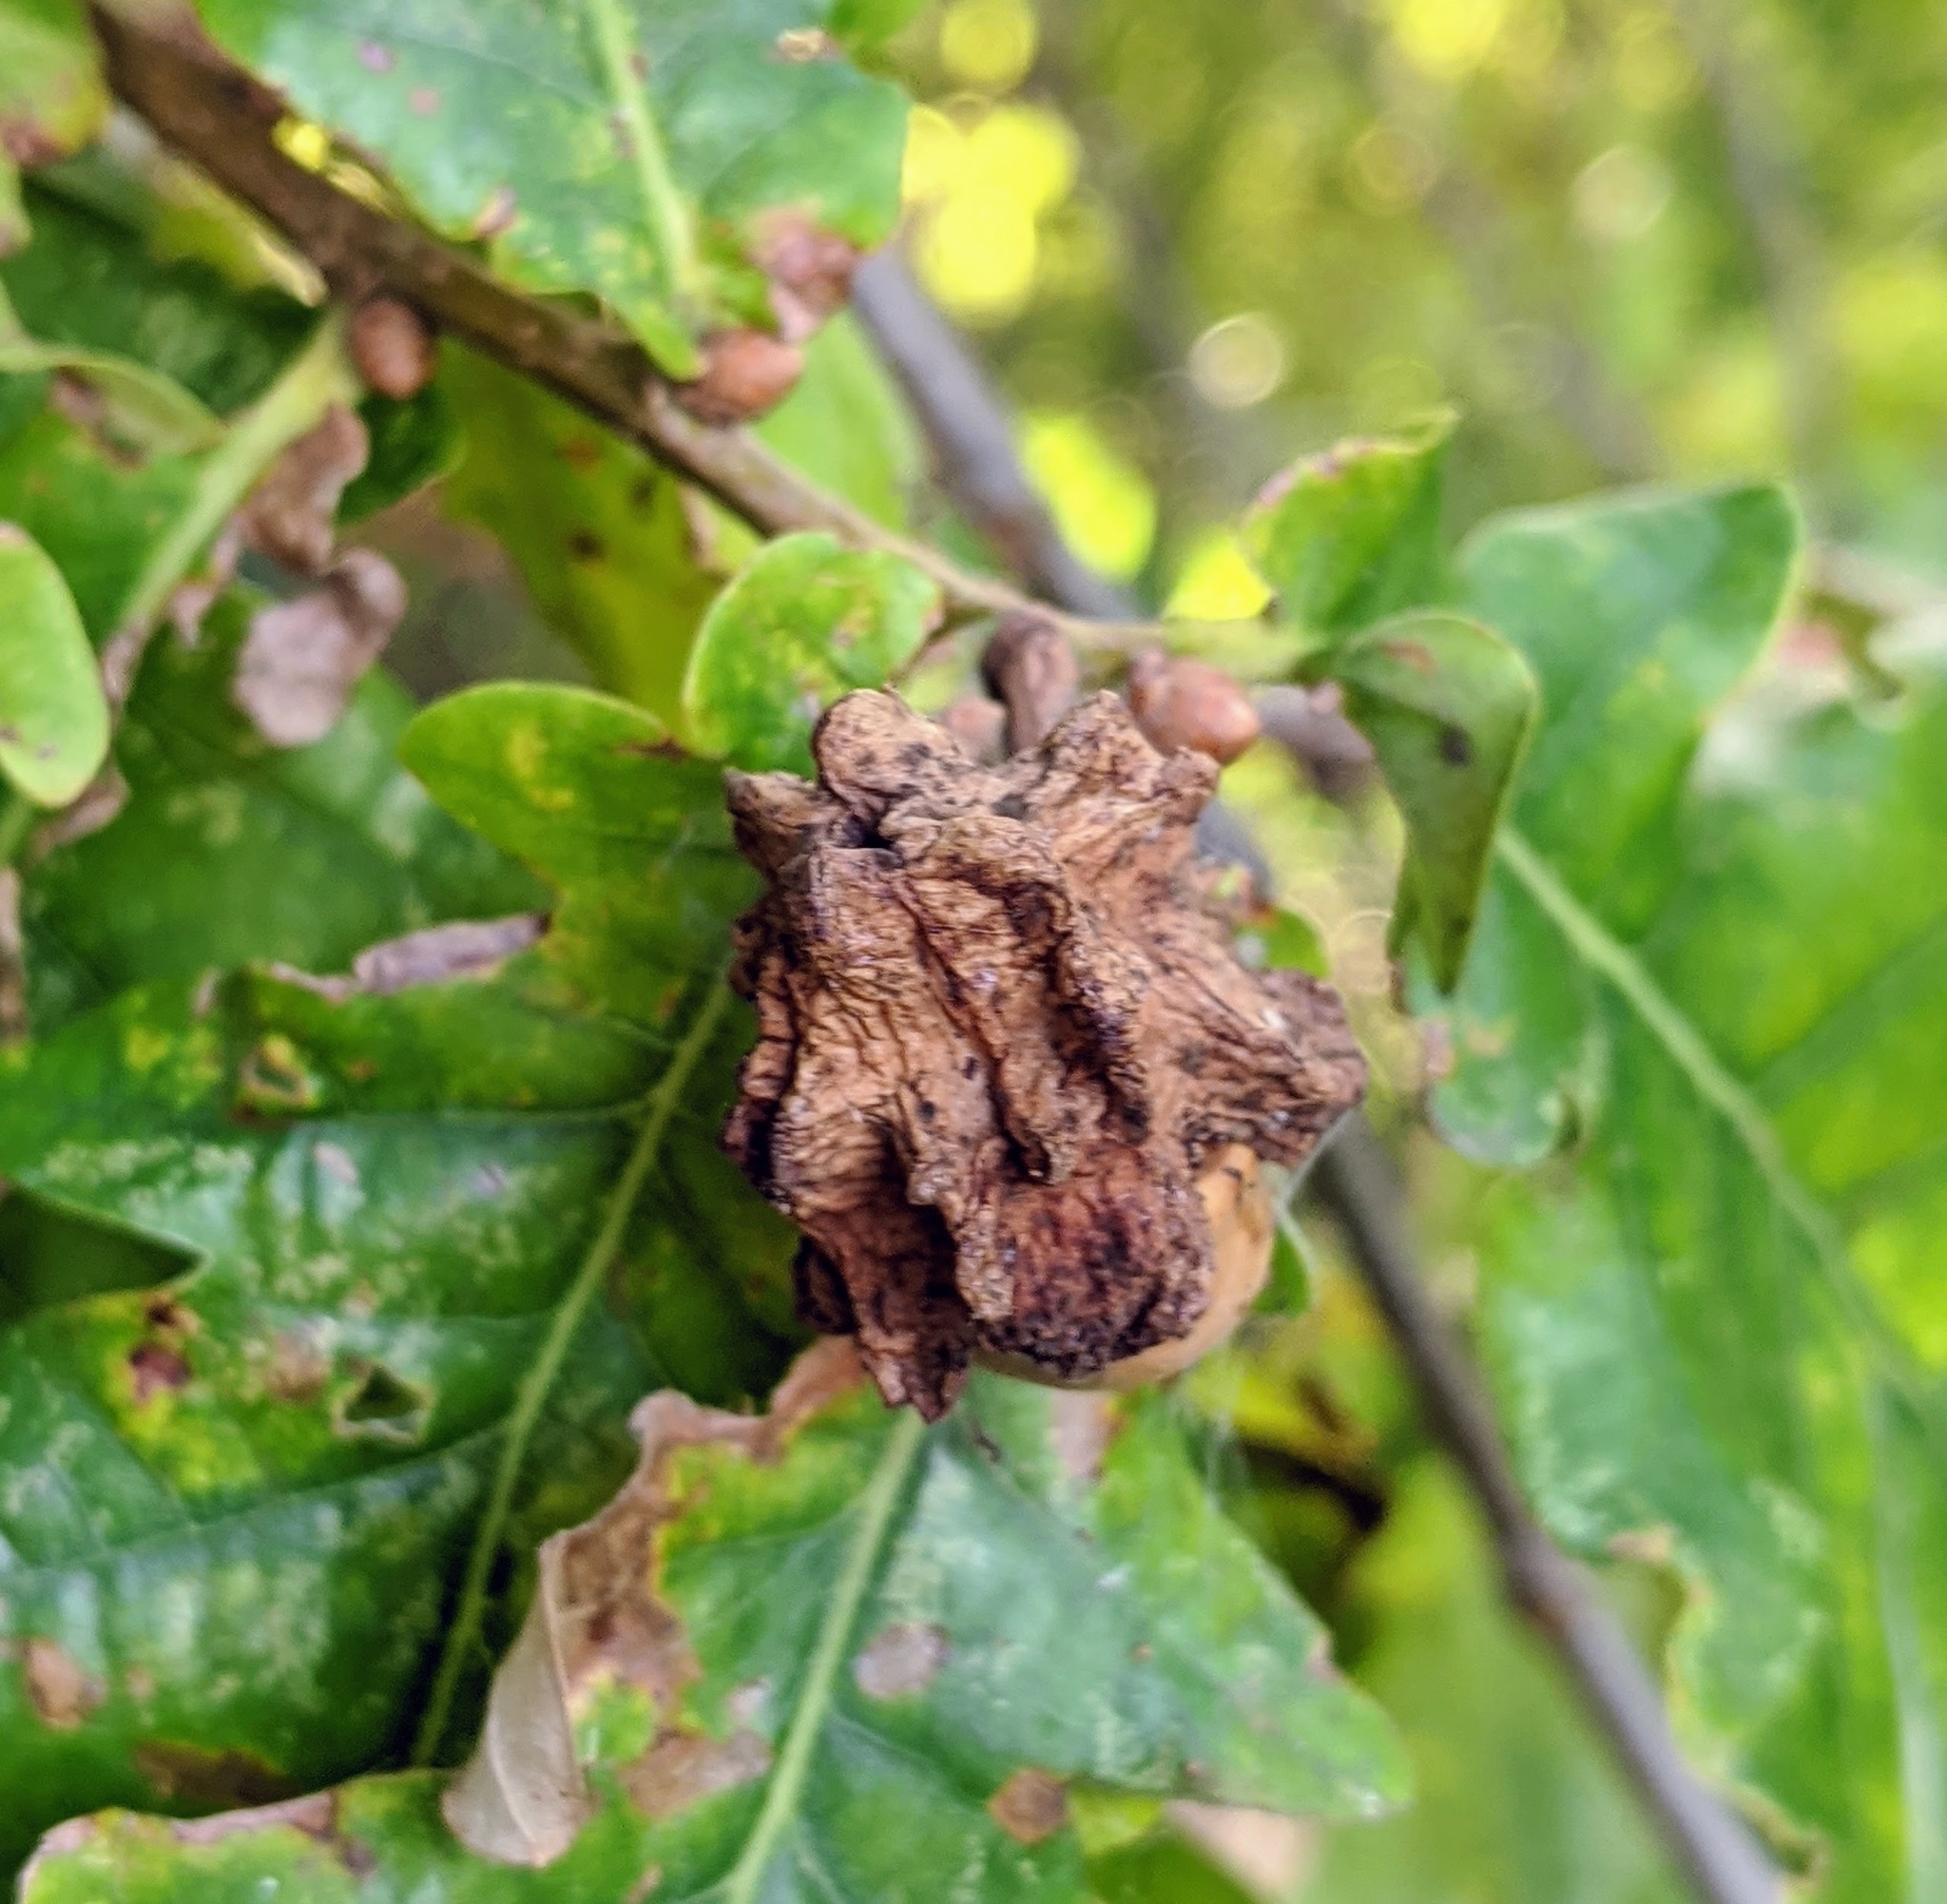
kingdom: Animalia
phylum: Arthropoda
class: Insecta
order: Hymenoptera
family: Cynipidae
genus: Andricus
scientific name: Andricus quercuscalicis
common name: Knopper gall
